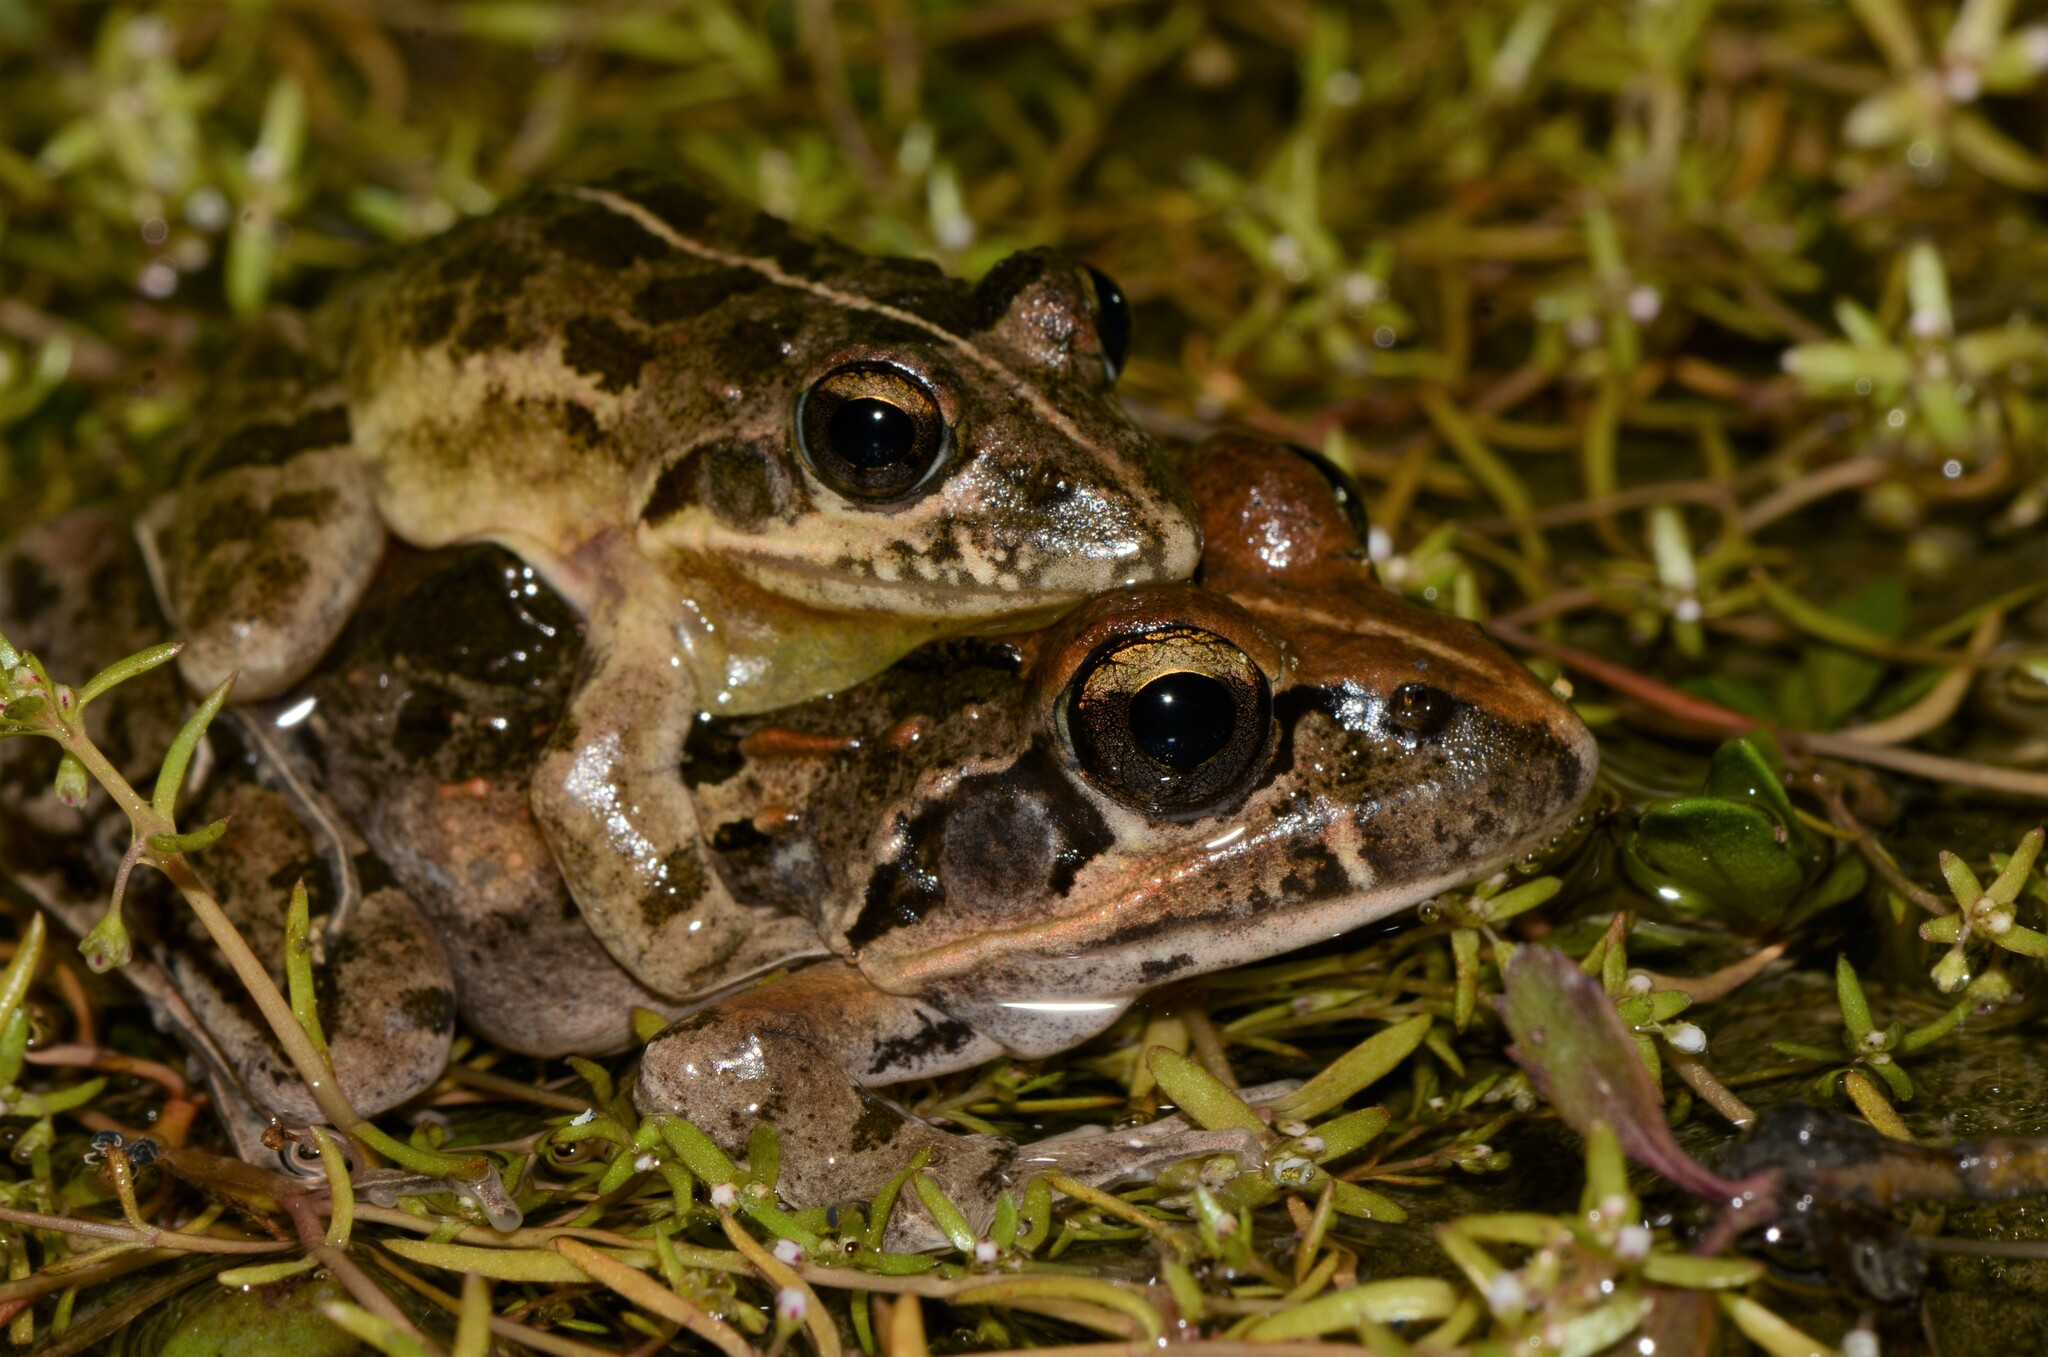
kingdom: Animalia
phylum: Chordata
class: Amphibia
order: Anura
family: Pyxicephalidae
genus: Strongylopus
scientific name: Strongylopus grayii
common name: Gray's stream frog
